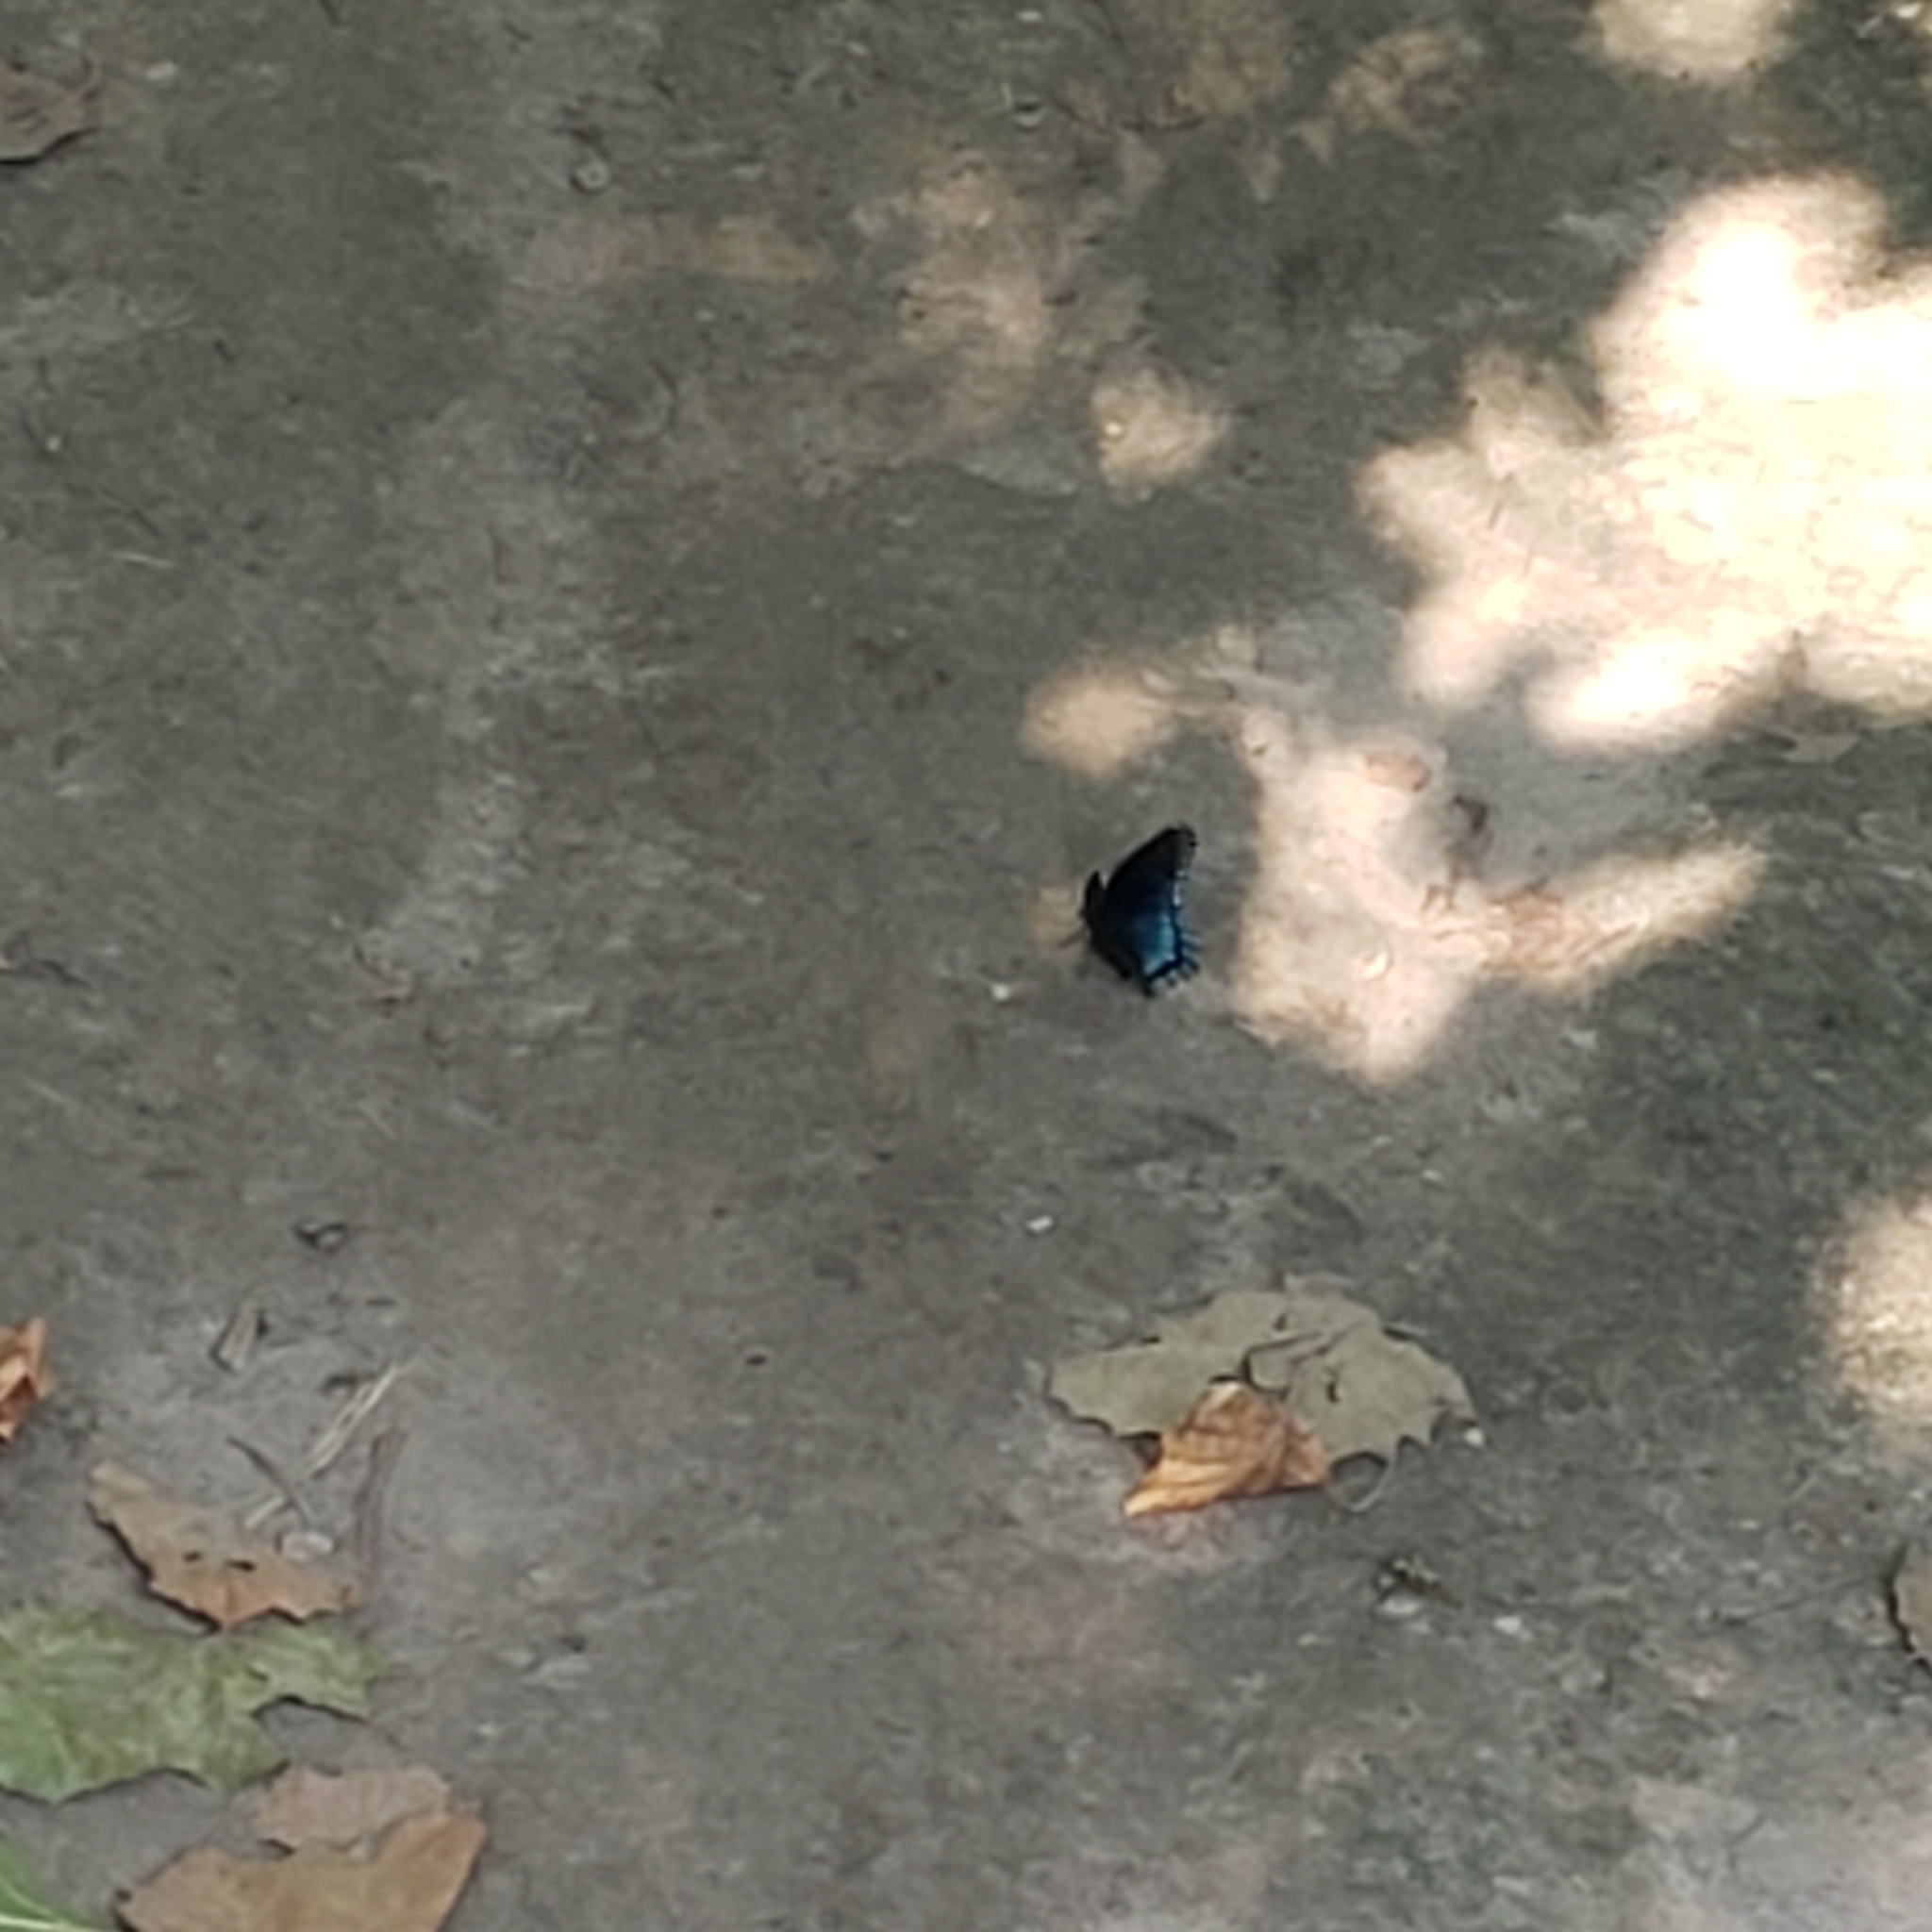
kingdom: Animalia
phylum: Arthropoda
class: Insecta
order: Lepidoptera
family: Nymphalidae
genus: Limenitis
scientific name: Limenitis astyanax
